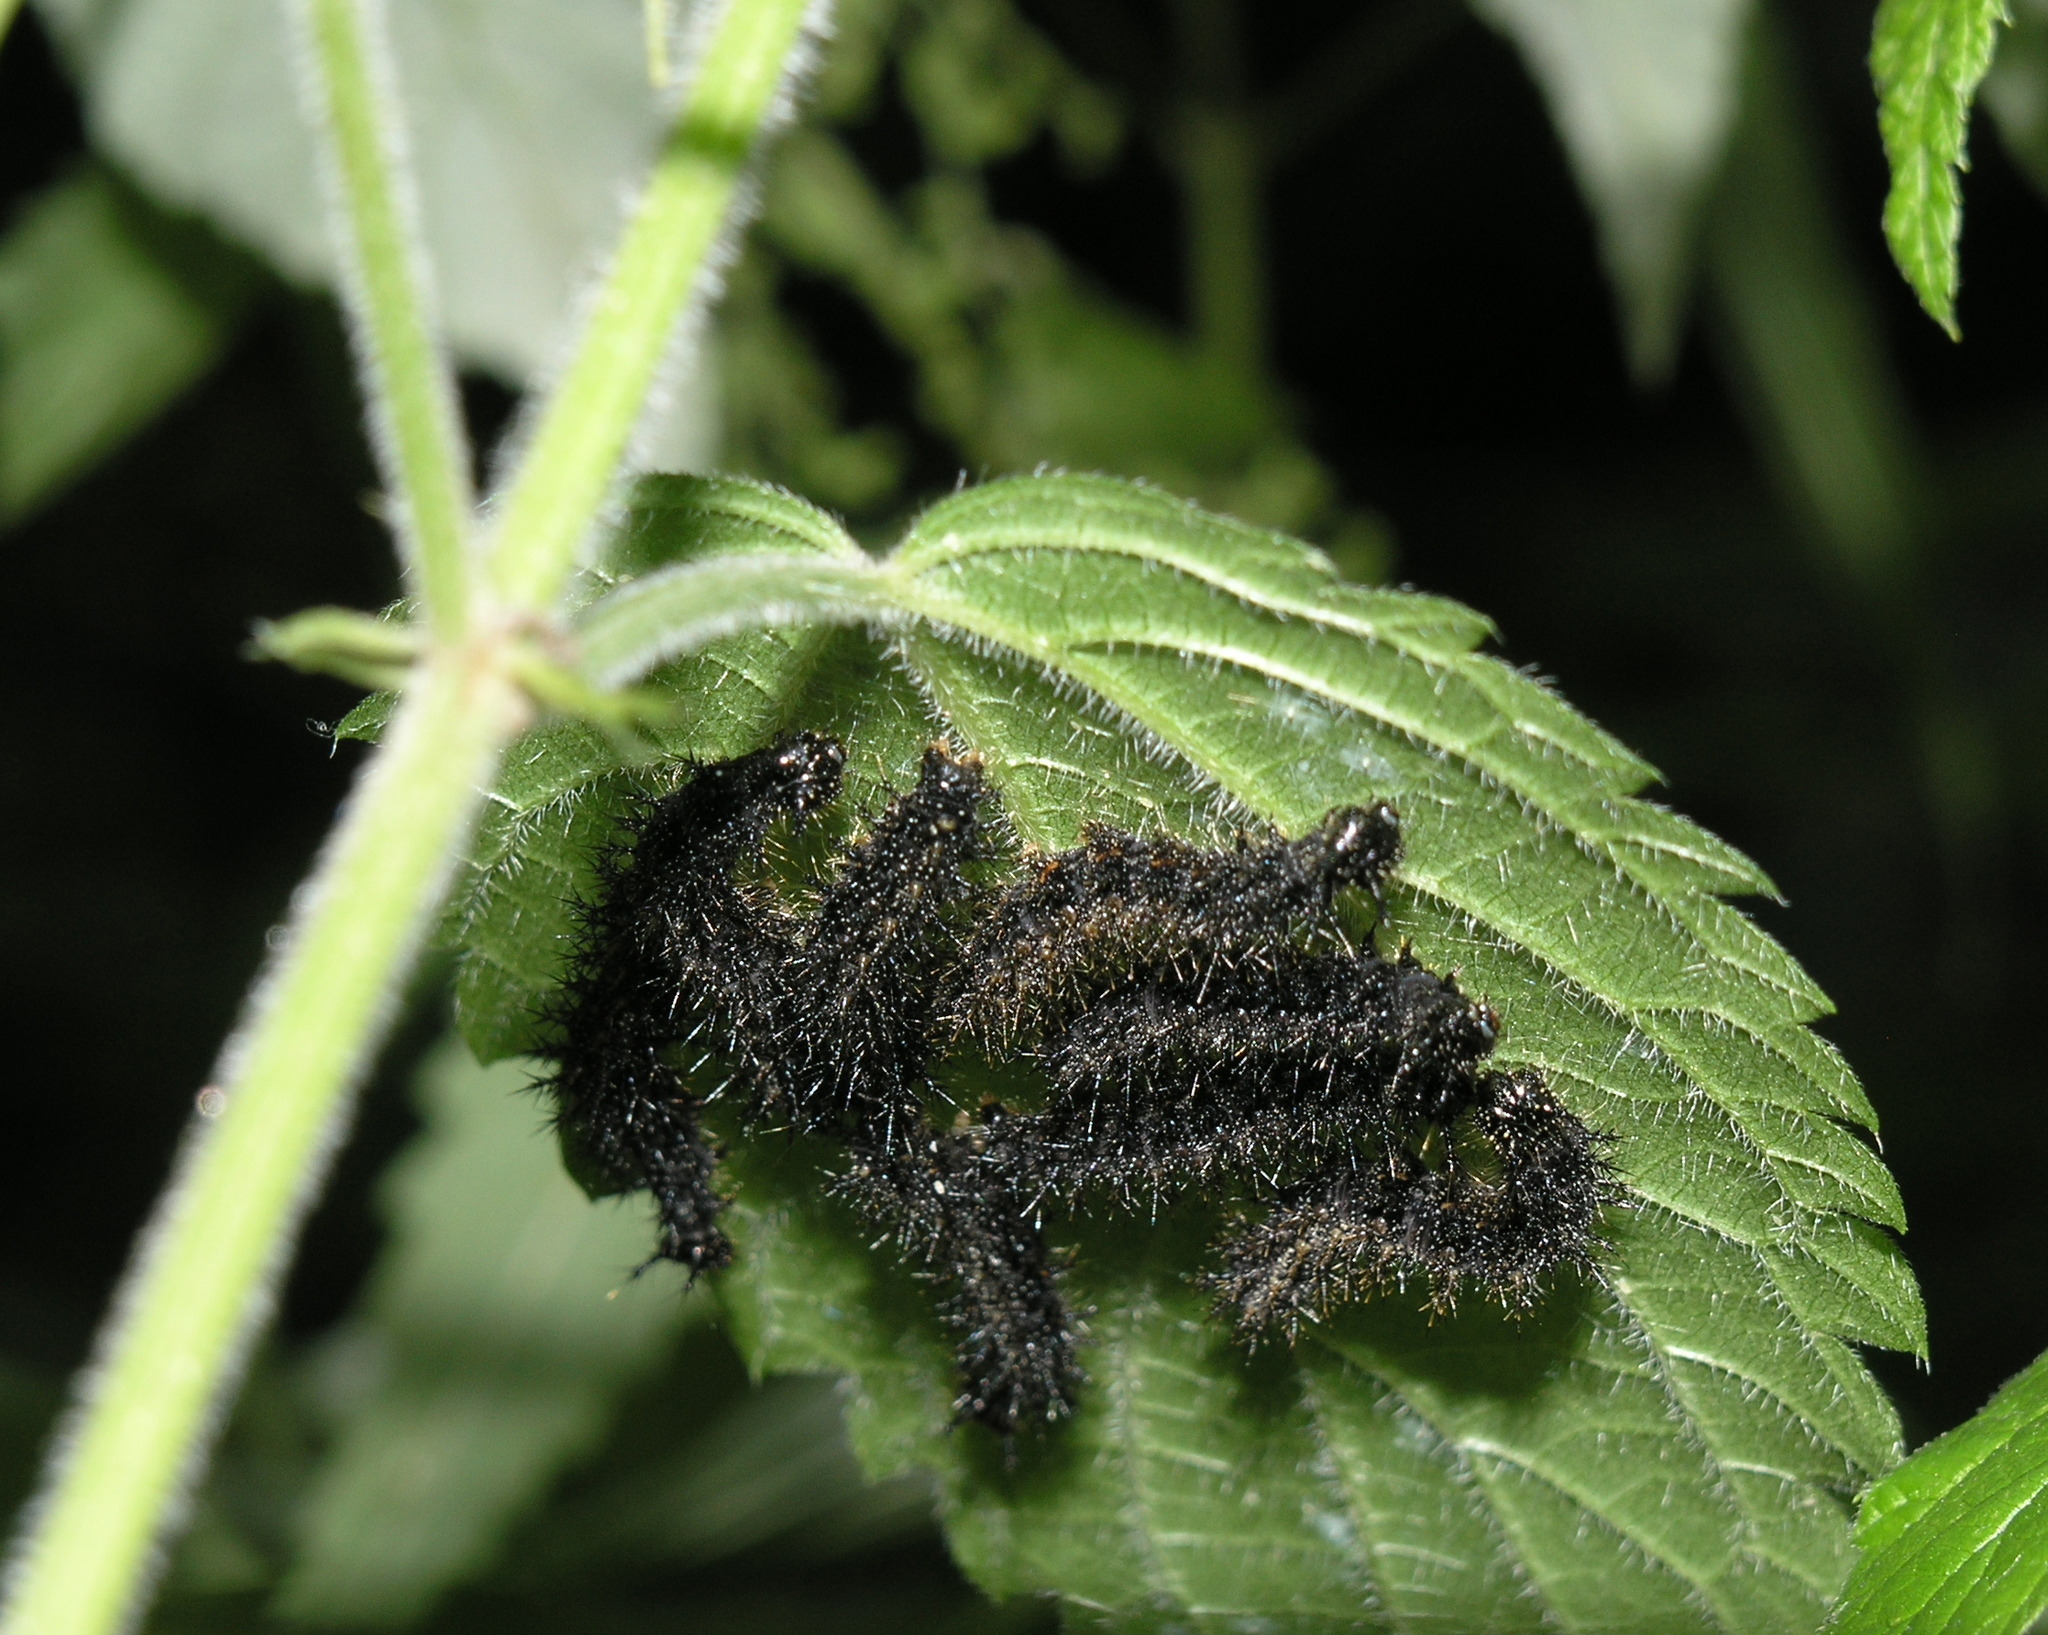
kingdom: Animalia
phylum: Arthropoda
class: Insecta
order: Lepidoptera
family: Nymphalidae
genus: Araschnia
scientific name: Araschnia levana
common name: Map butterfly
